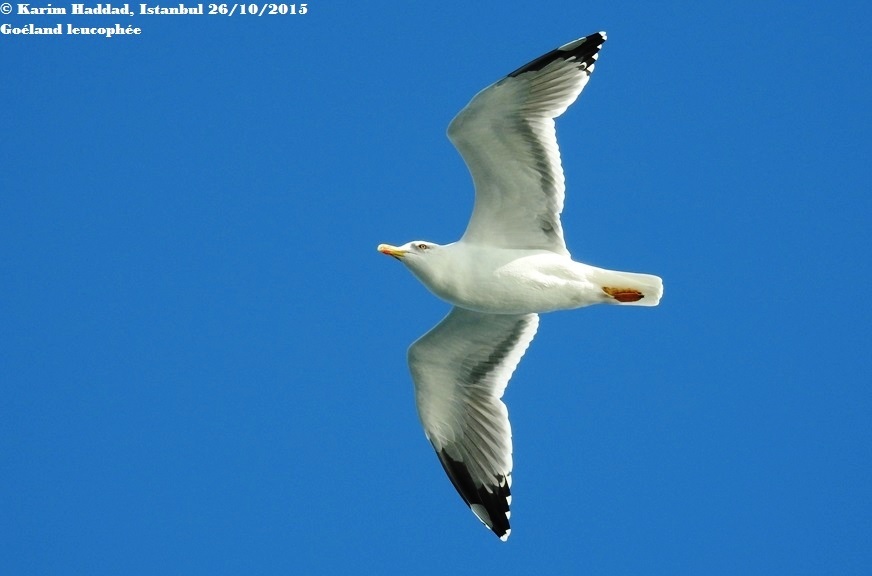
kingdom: Animalia
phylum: Chordata
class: Aves
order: Charadriiformes
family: Laridae
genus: Larus
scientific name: Larus michahellis
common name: Yellow-legged gull
